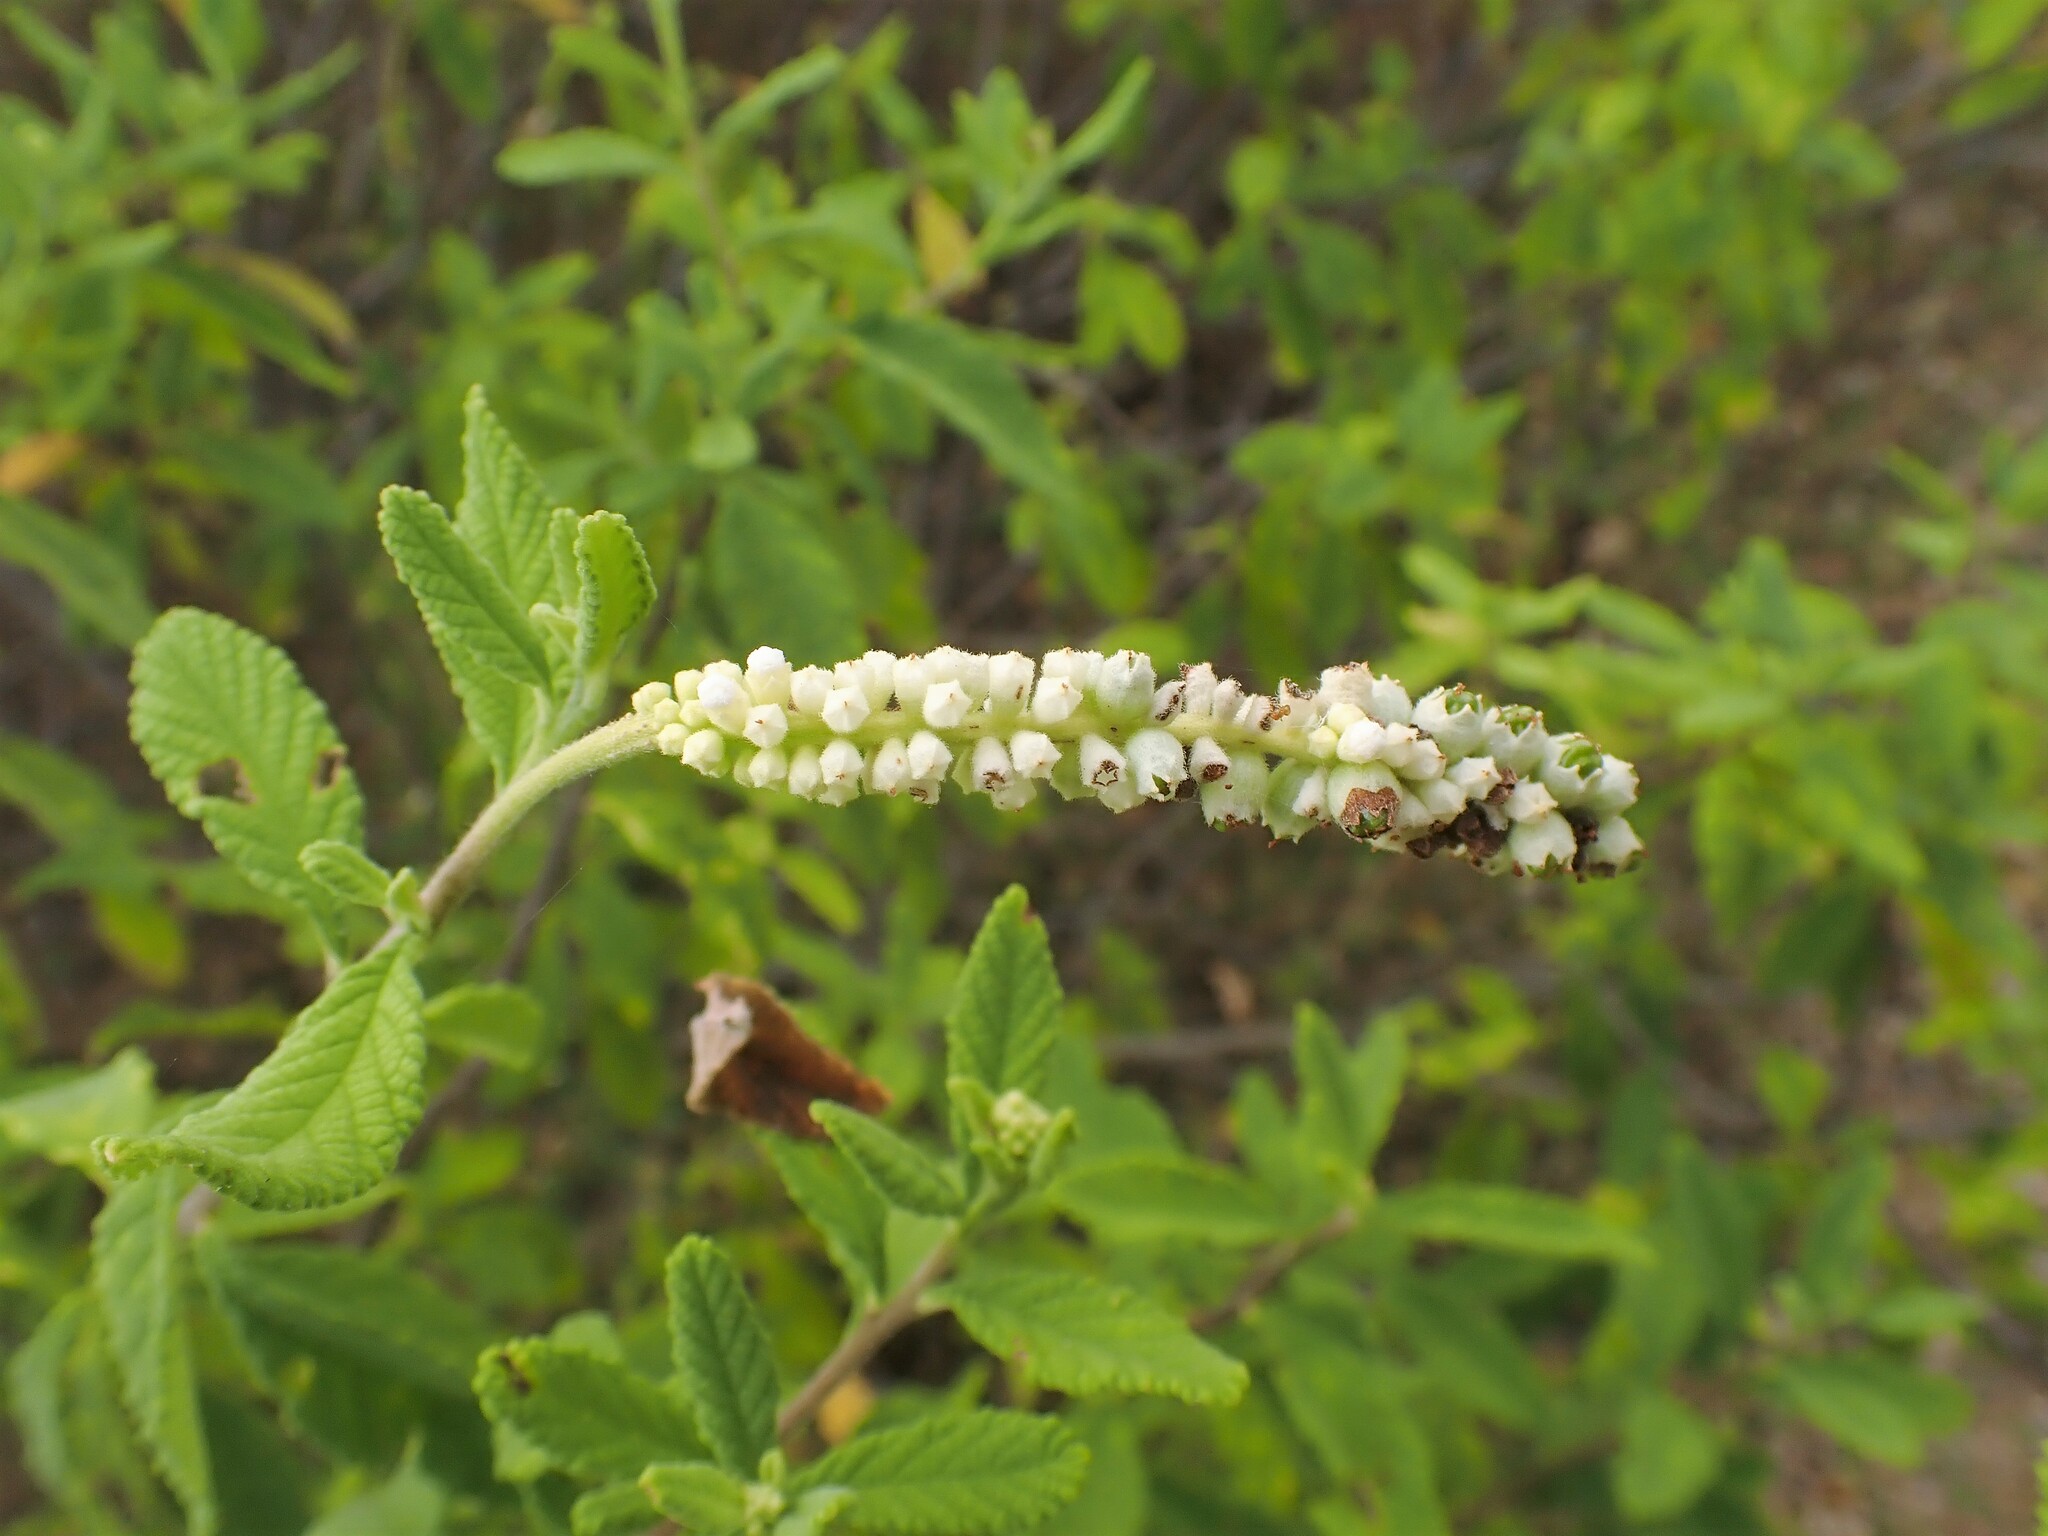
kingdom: Plantae
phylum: Tracheophyta
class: Magnoliopsida
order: Boraginales
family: Cordiaceae
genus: Varronia
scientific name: Varronia curassavica
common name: Black sage
